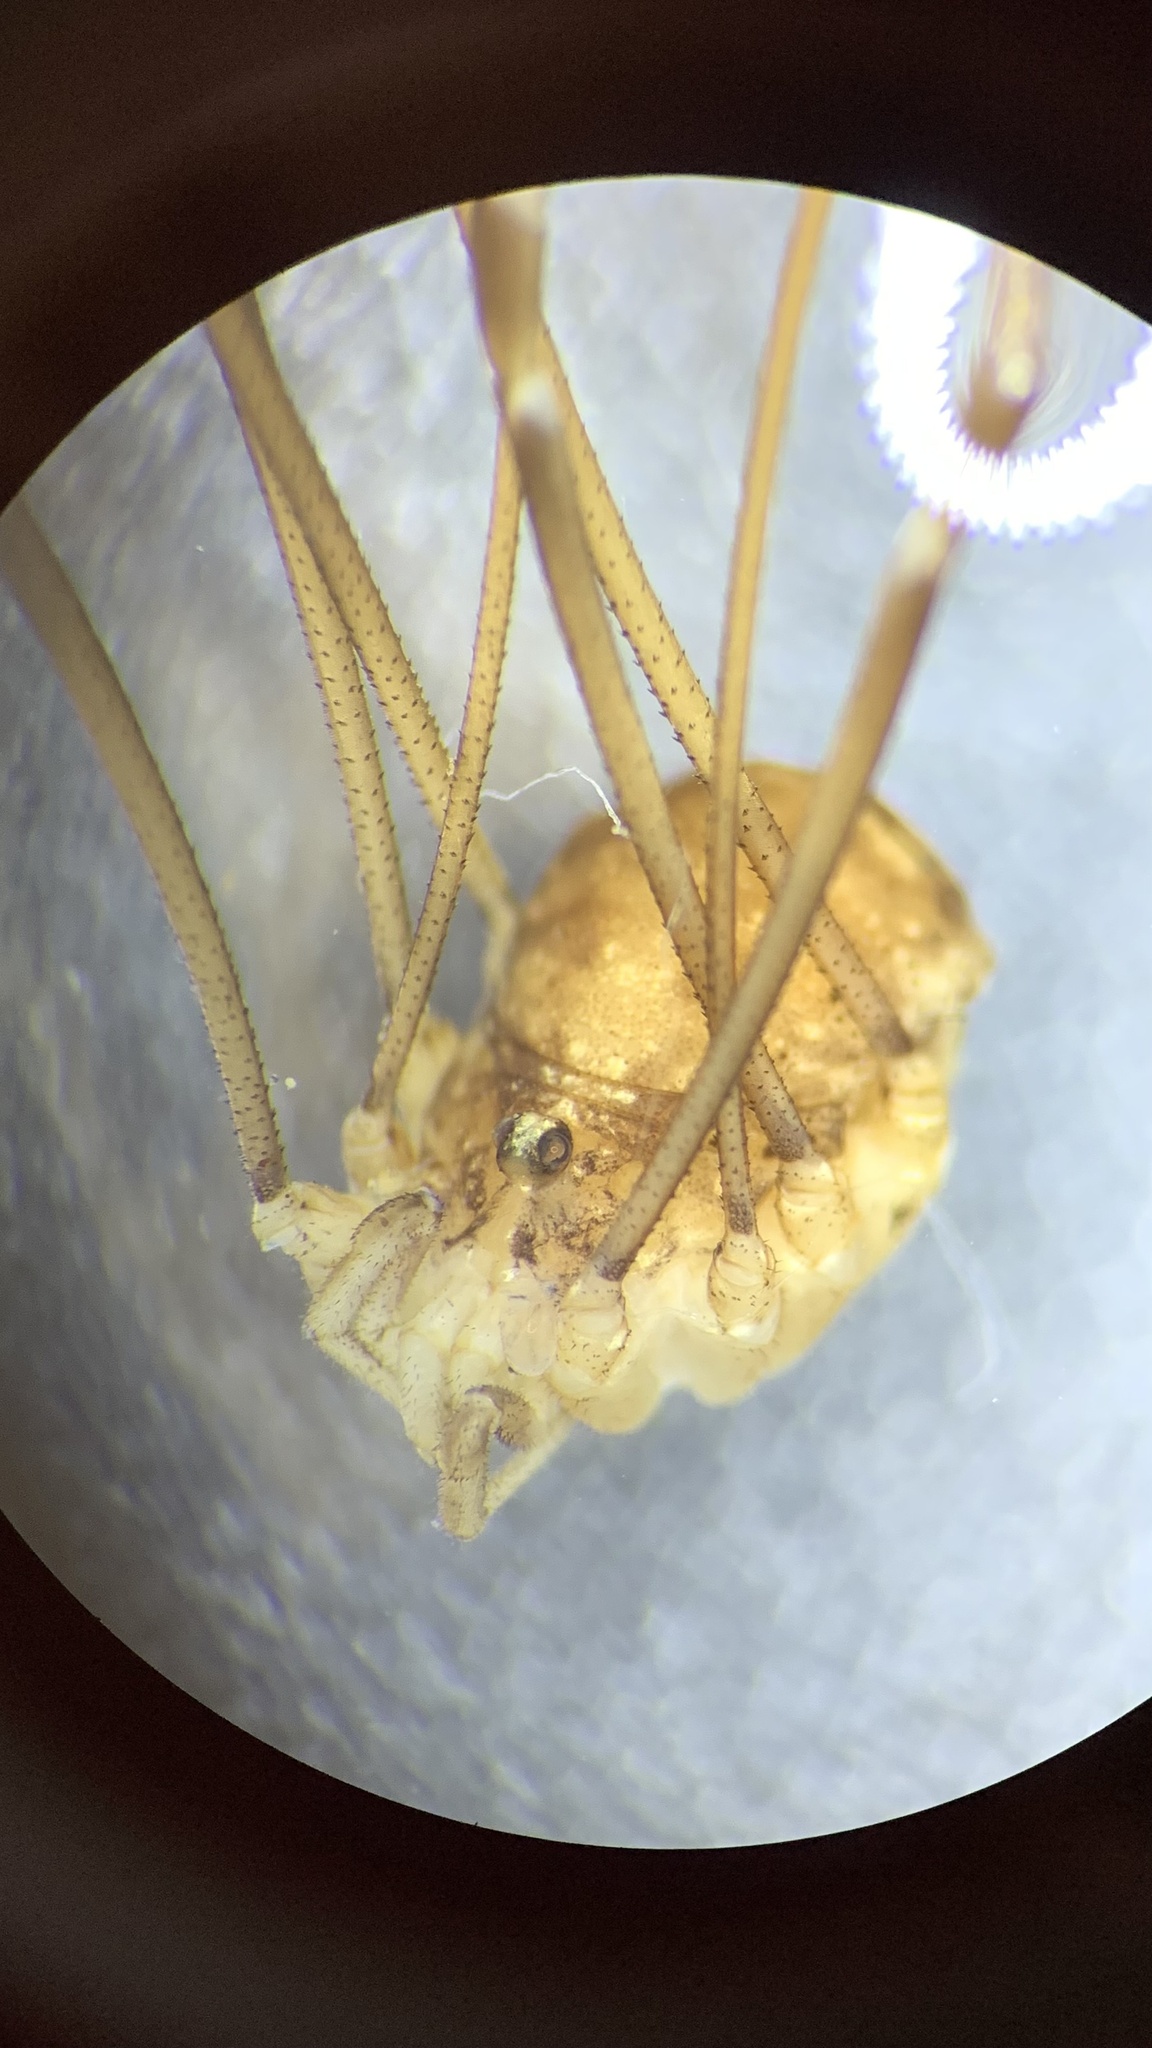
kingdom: Animalia
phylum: Arthropoda
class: Arachnida
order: Opiliones
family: Sclerosomatidae
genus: Nelima
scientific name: Nelima doriae
